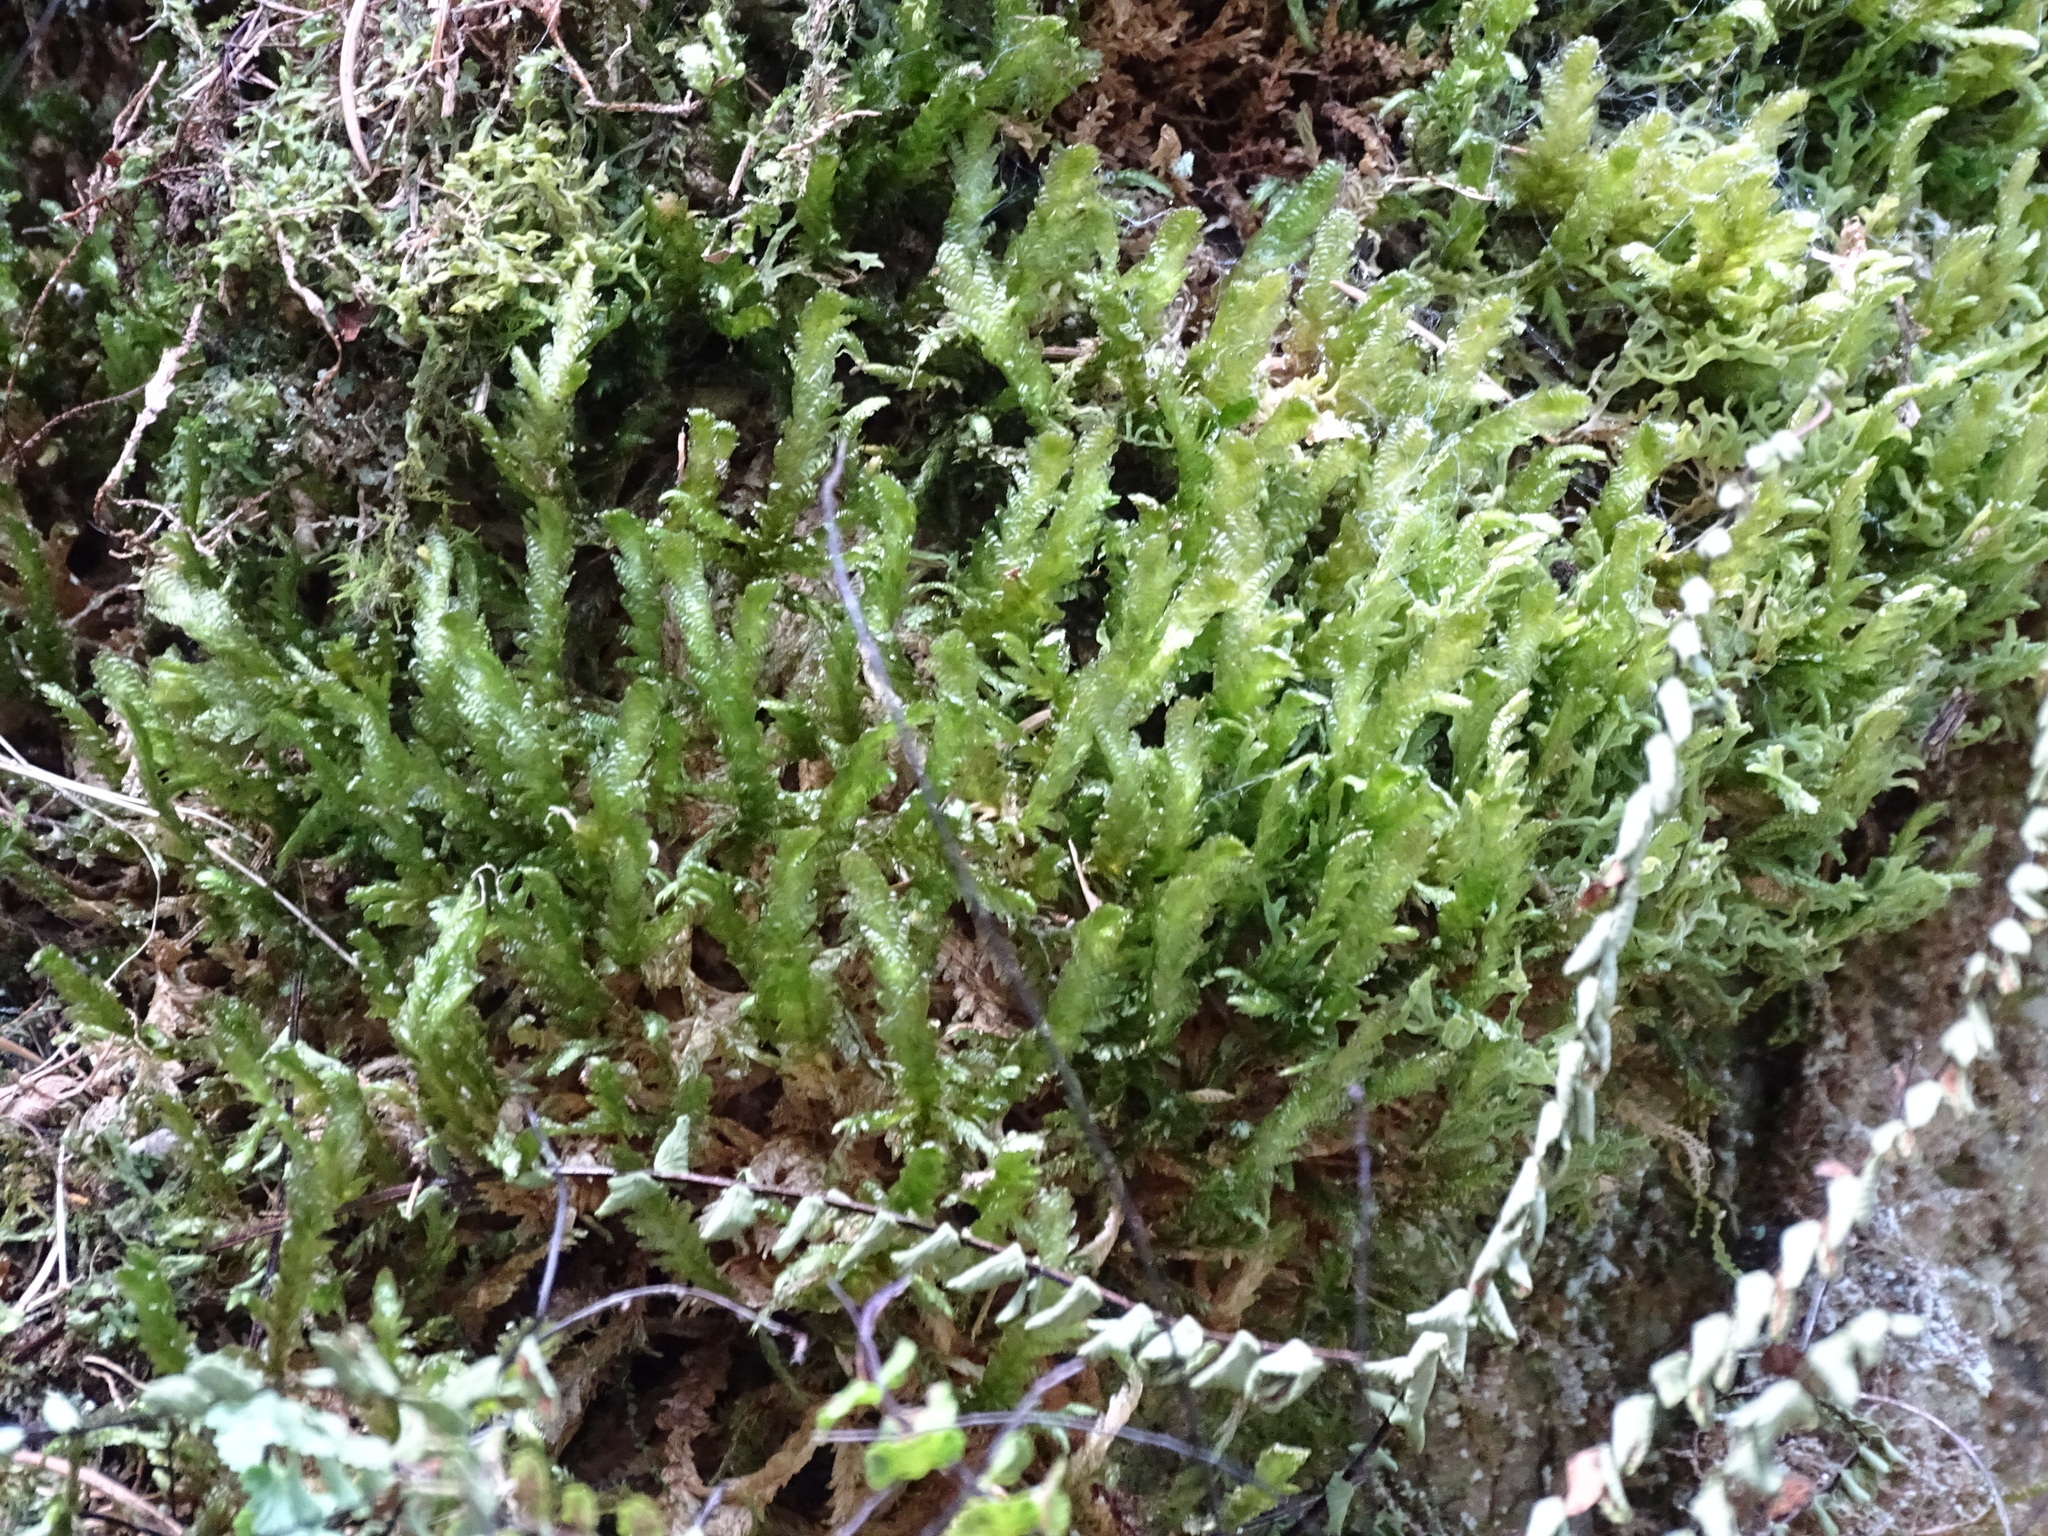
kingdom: Plantae
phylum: Bryophyta
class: Bryopsida
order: Hypnales
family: Neckeraceae
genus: Exsertotheca
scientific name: Exsertotheca crispa
